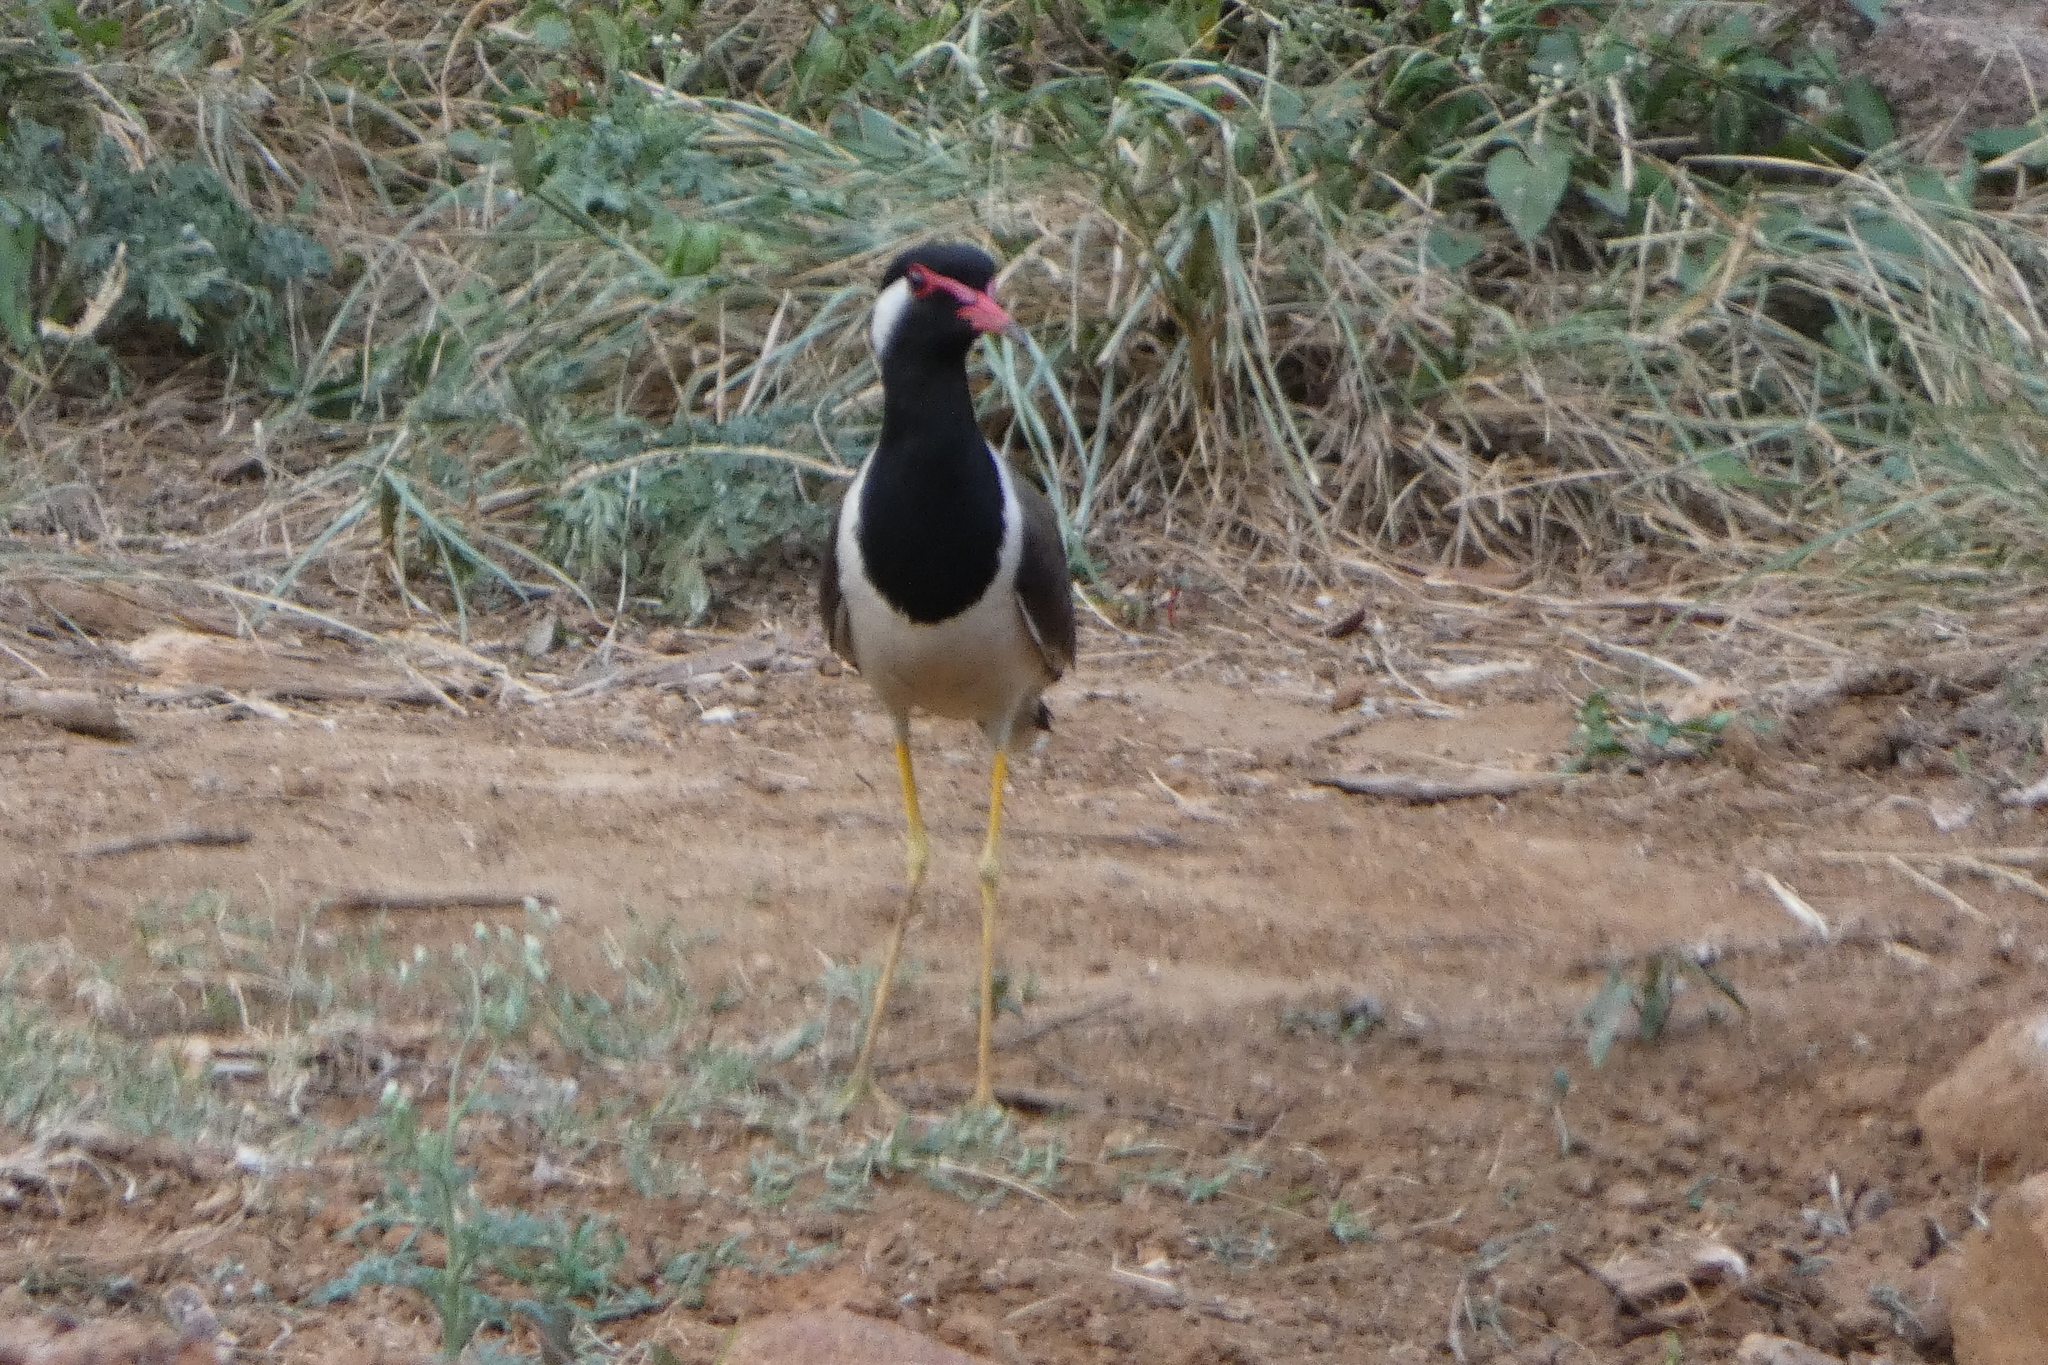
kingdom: Animalia
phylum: Chordata
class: Aves
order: Charadriiformes
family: Charadriidae
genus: Vanellus
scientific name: Vanellus indicus
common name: Red-wattled lapwing
